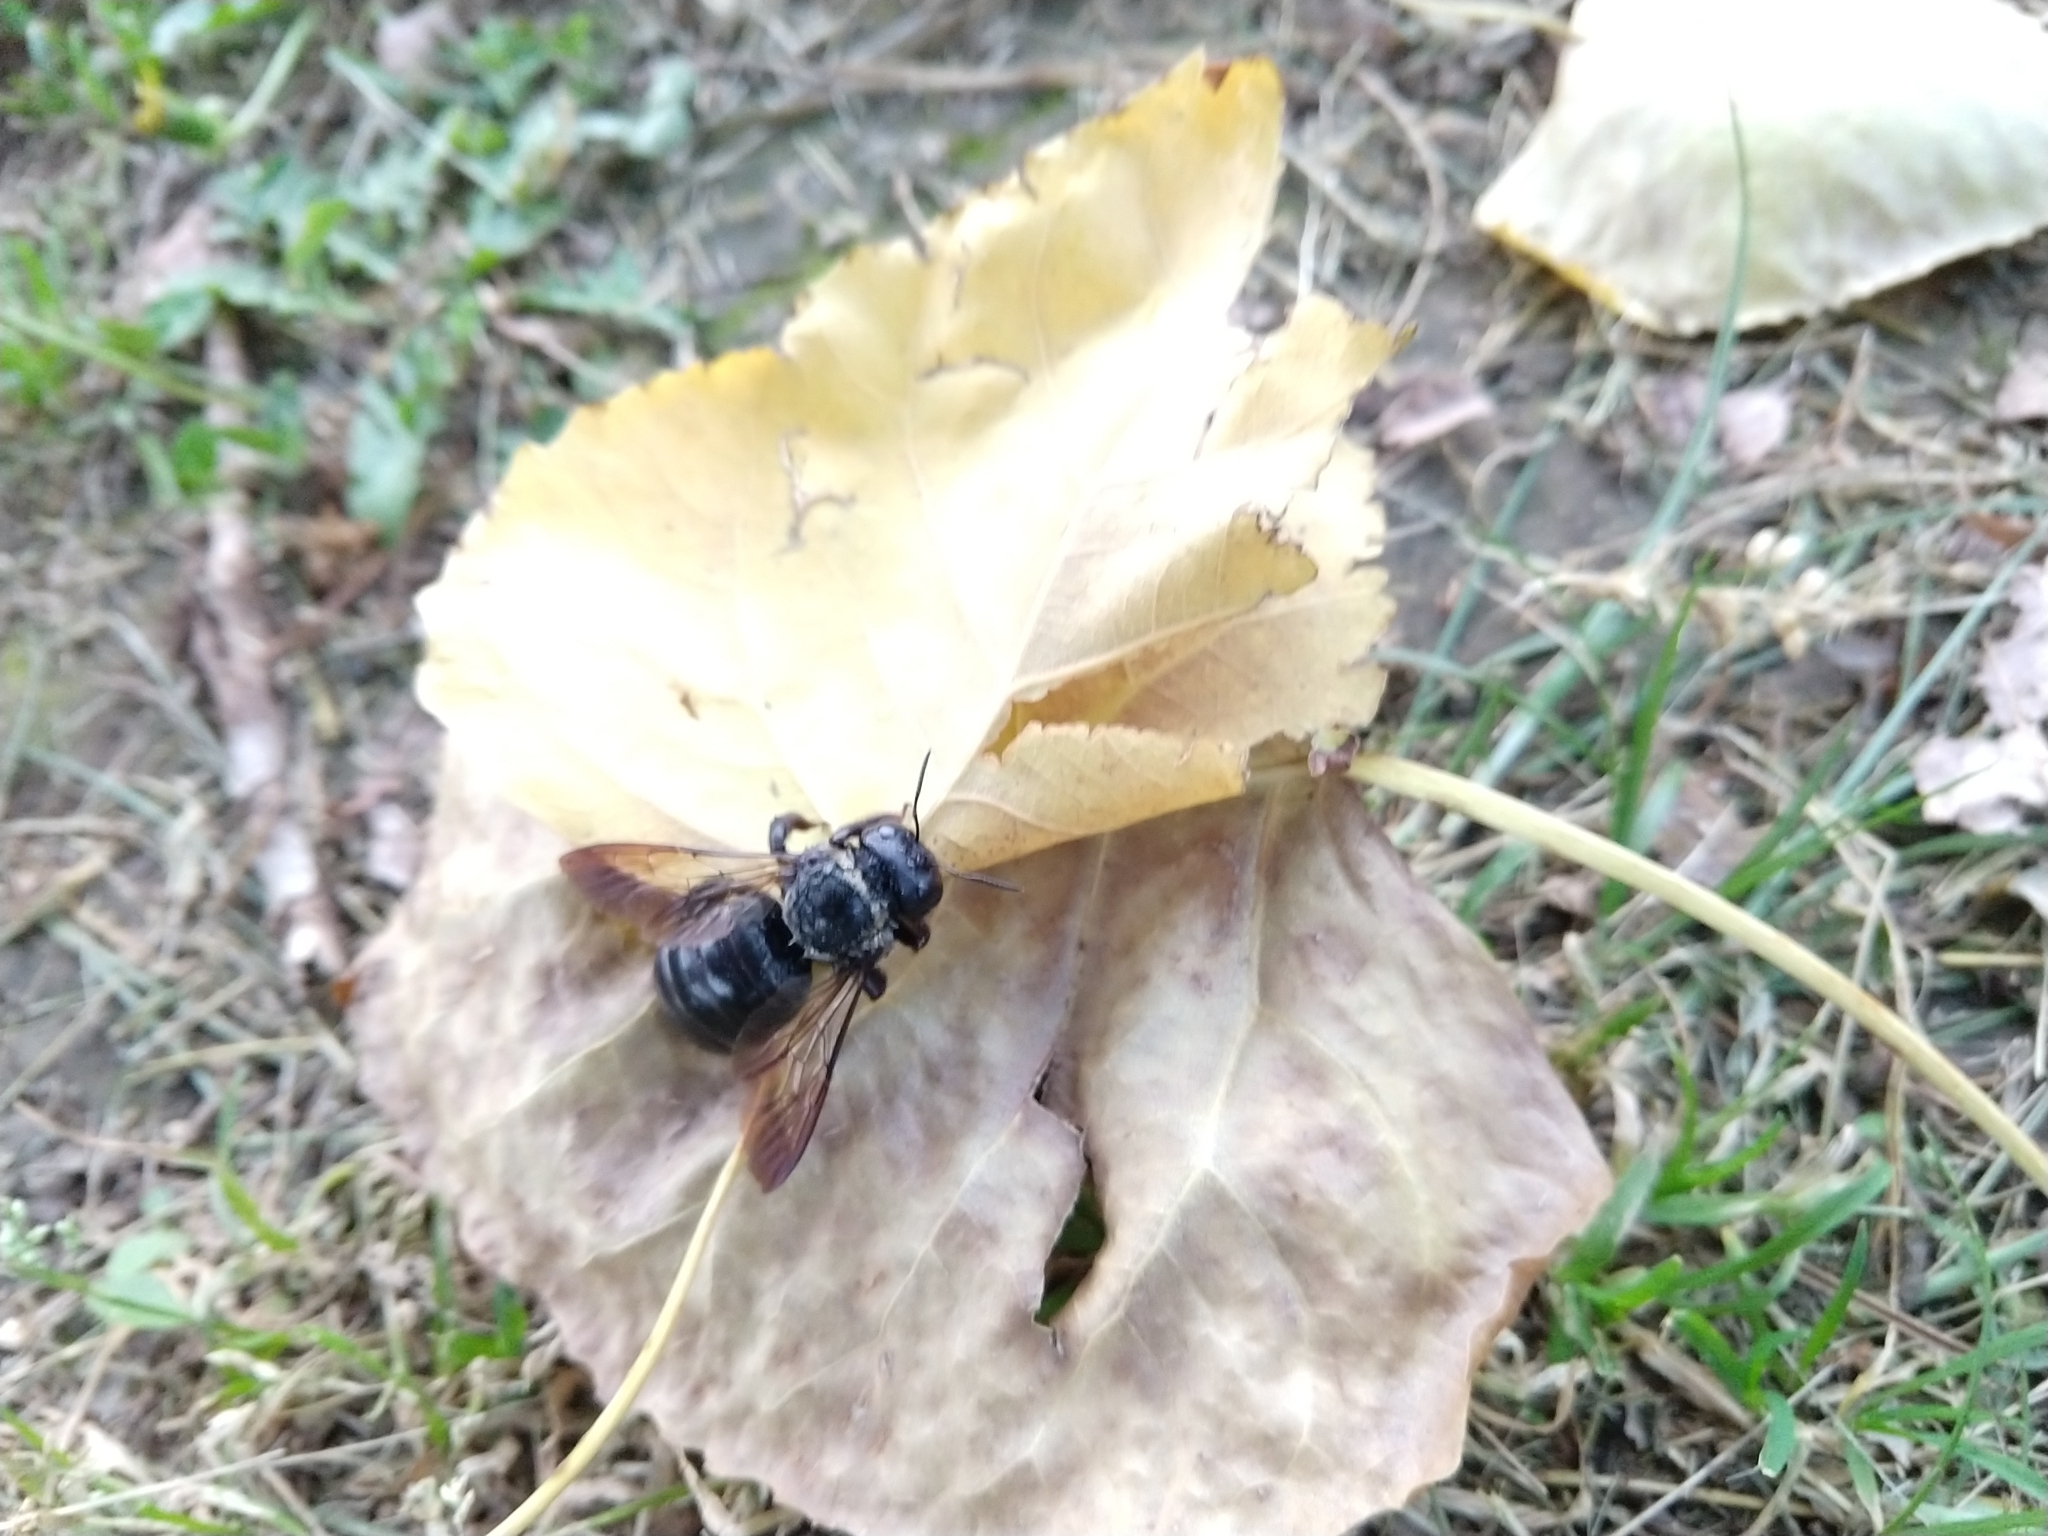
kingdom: Animalia
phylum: Arthropoda
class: Insecta
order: Hymenoptera
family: Apidae
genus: Xylocopa
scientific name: Xylocopa virginica
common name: Carpenter bee
